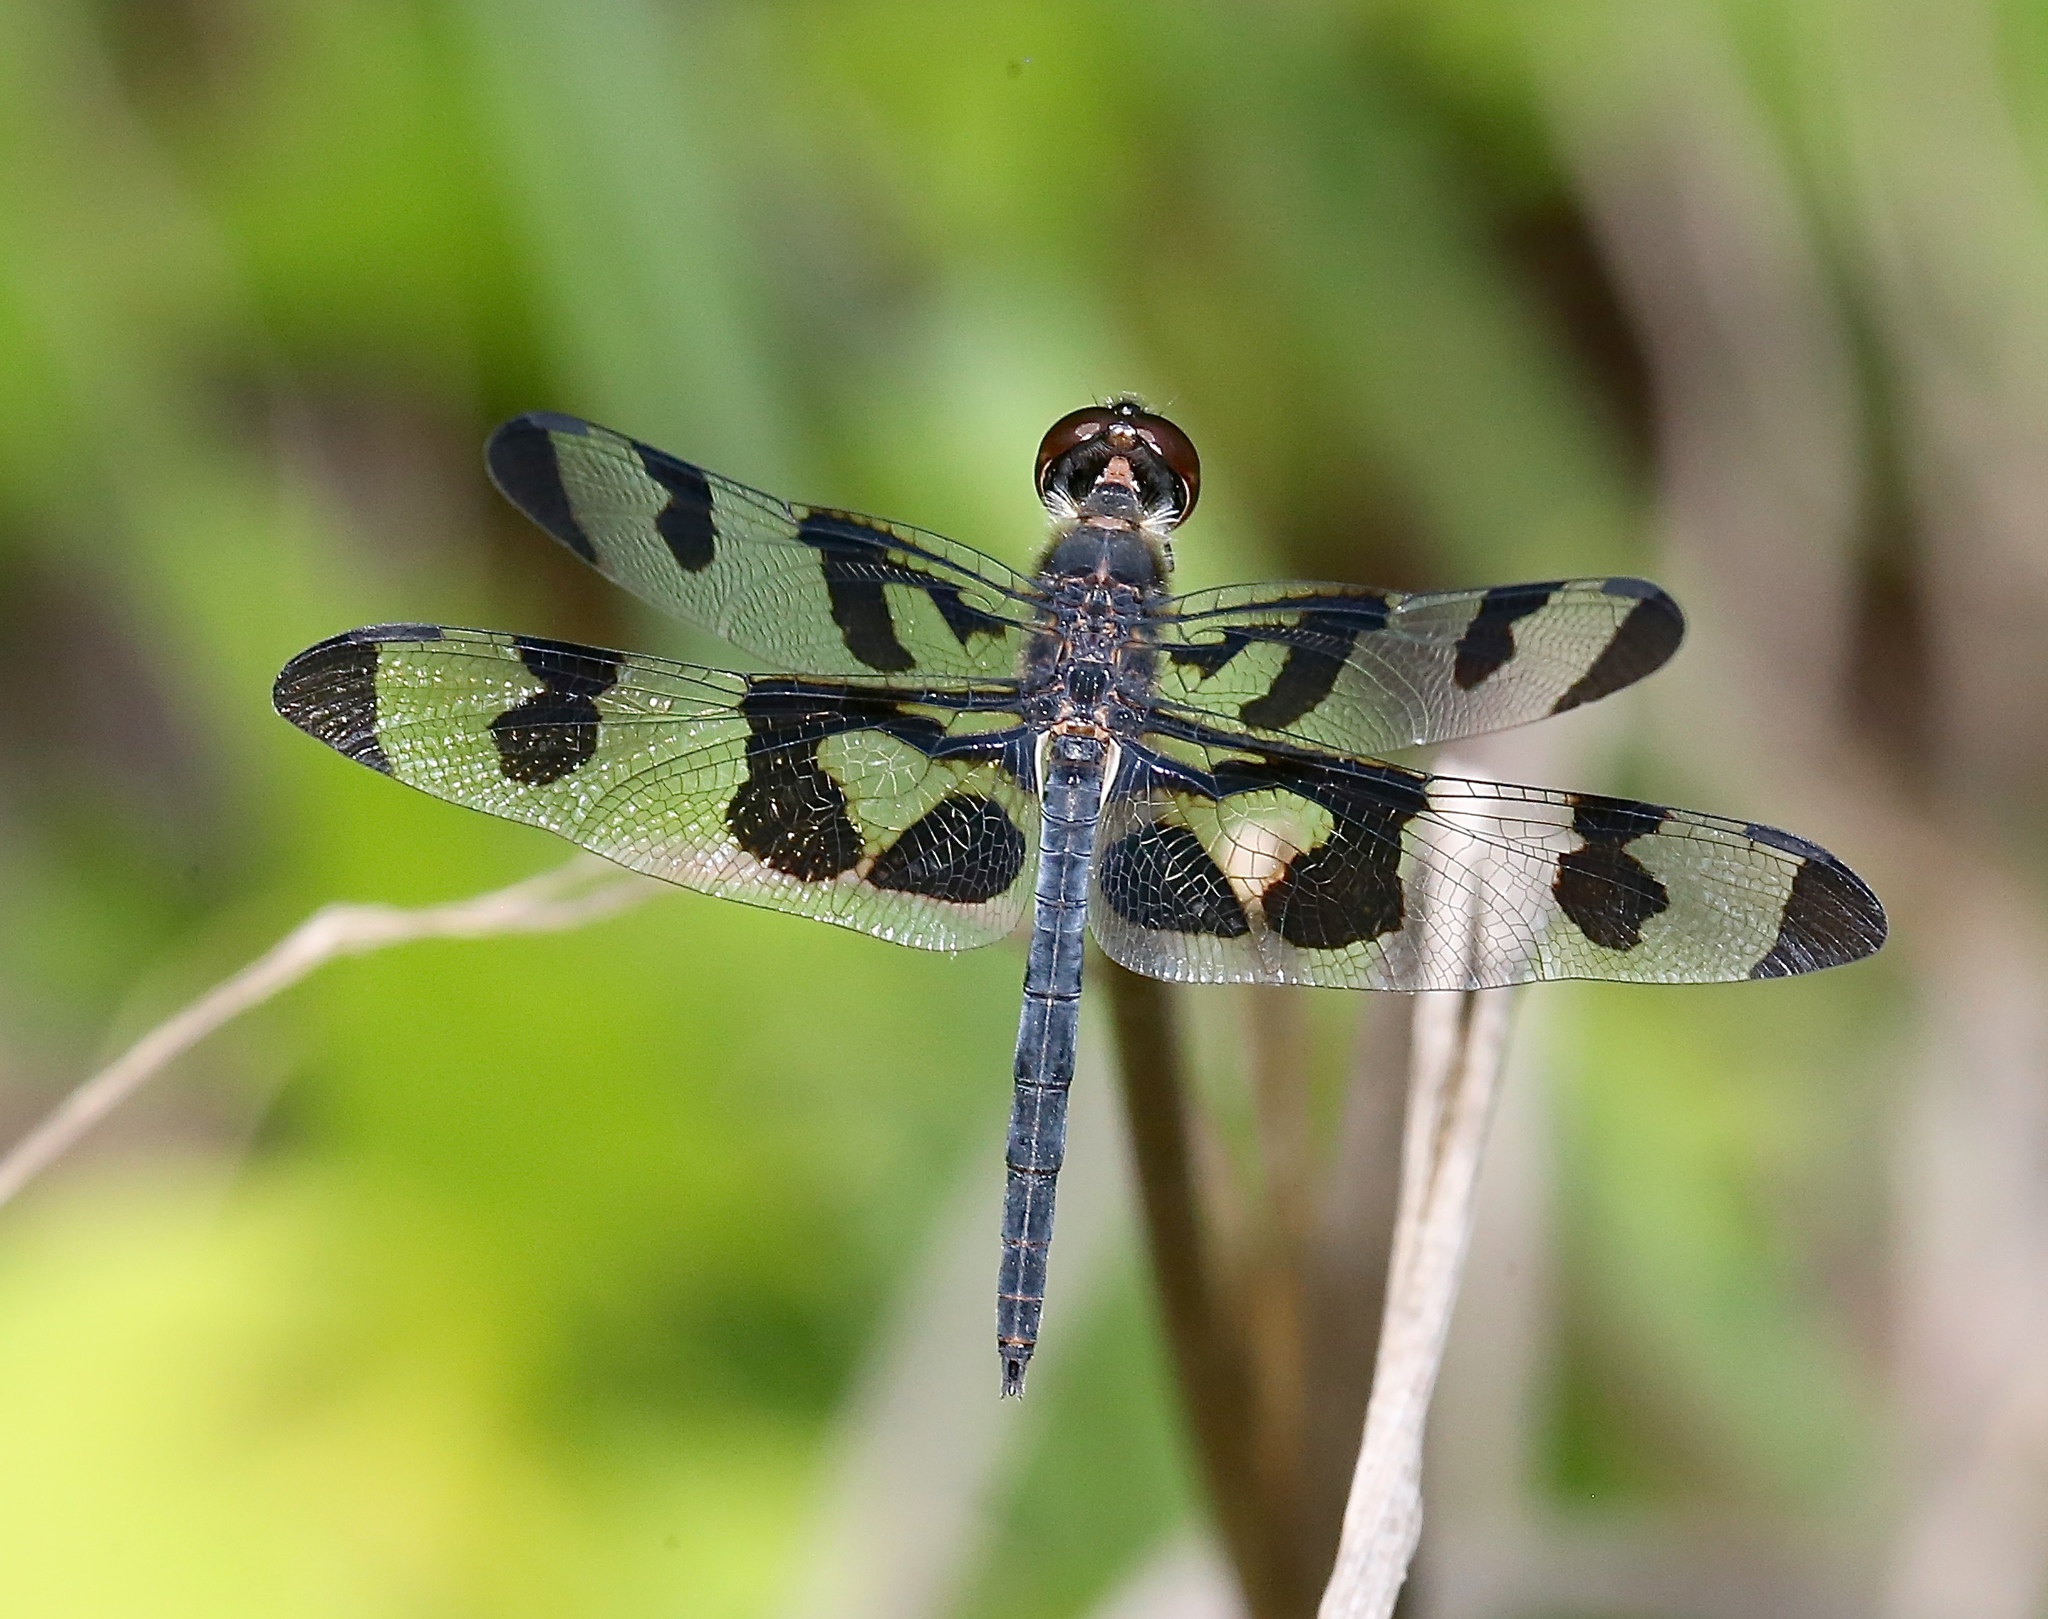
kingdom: Animalia
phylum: Arthropoda
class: Insecta
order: Odonata
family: Libellulidae
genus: Celithemis
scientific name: Celithemis fasciata
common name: Banded pennant
